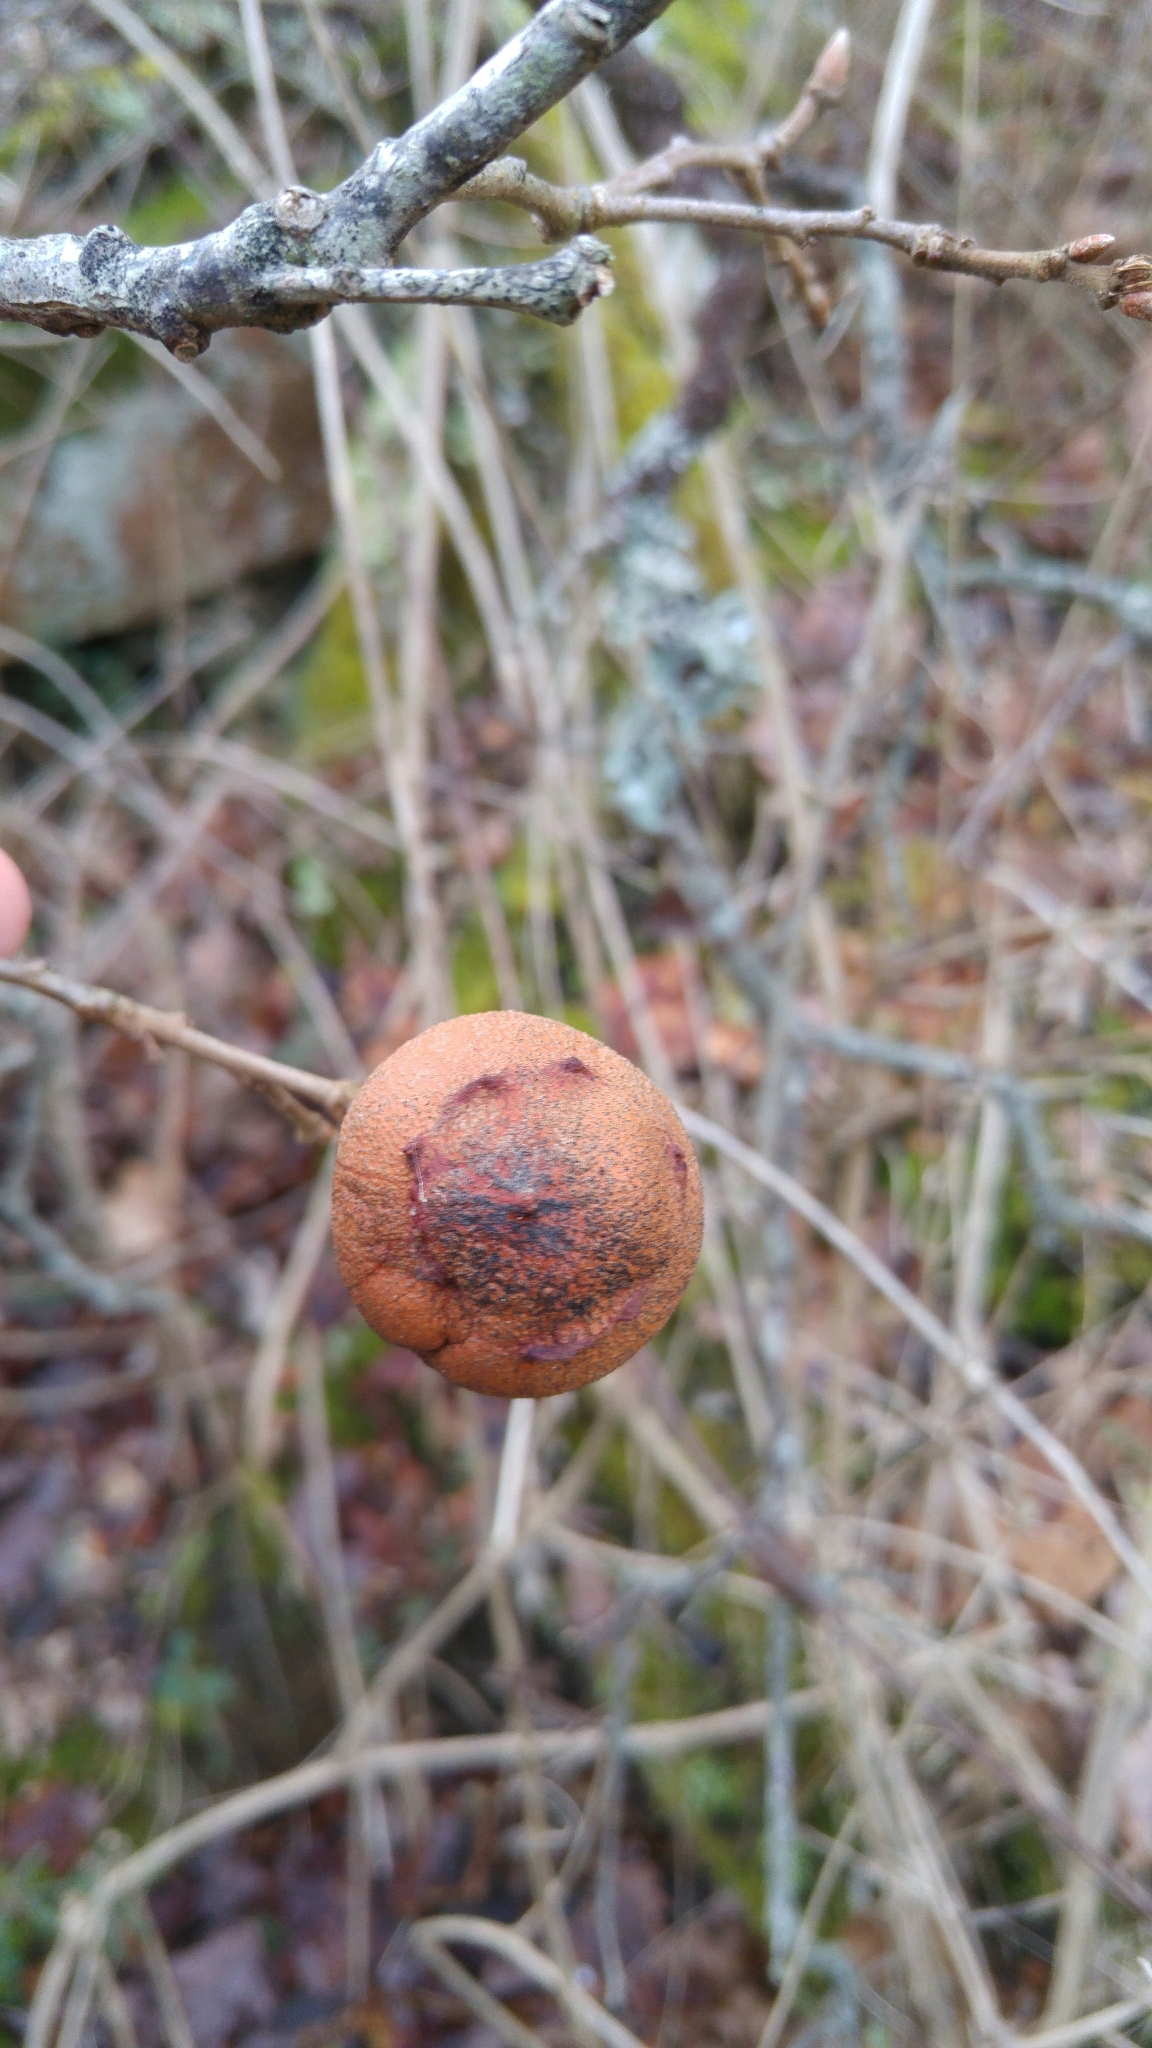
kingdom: Animalia
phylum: Arthropoda
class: Insecta
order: Hymenoptera
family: Cynipidae
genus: Andricus
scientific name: Andricus quercustozae
